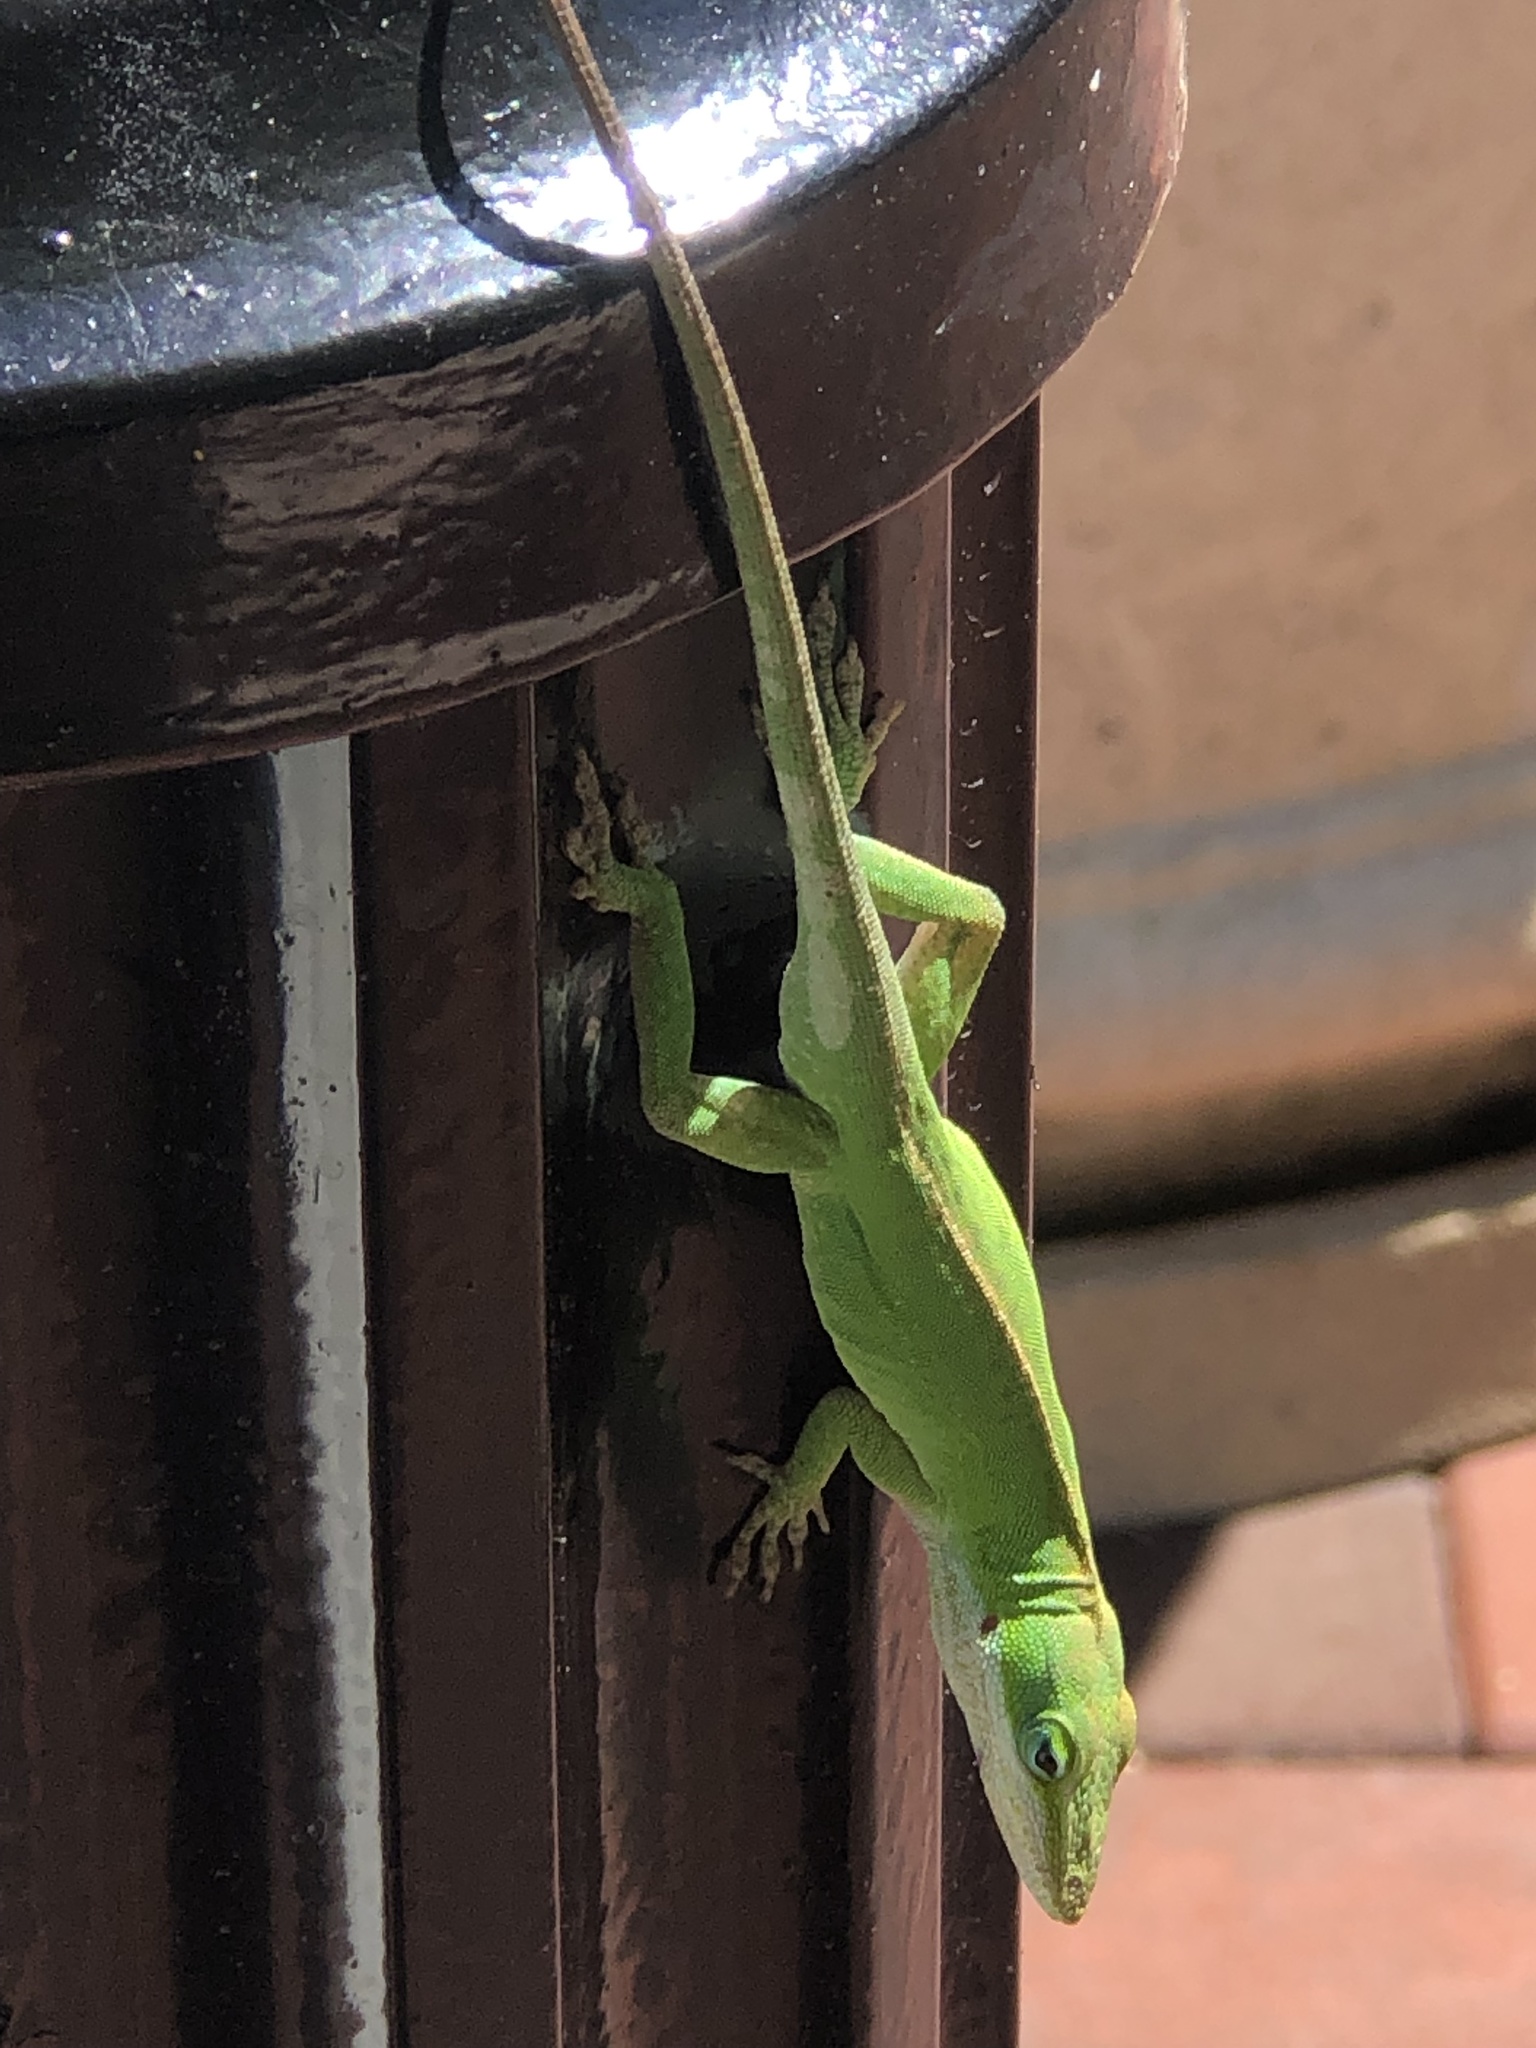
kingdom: Animalia
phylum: Chordata
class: Squamata
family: Dactyloidae
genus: Anolis
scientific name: Anolis carolinensis
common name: Green anole
